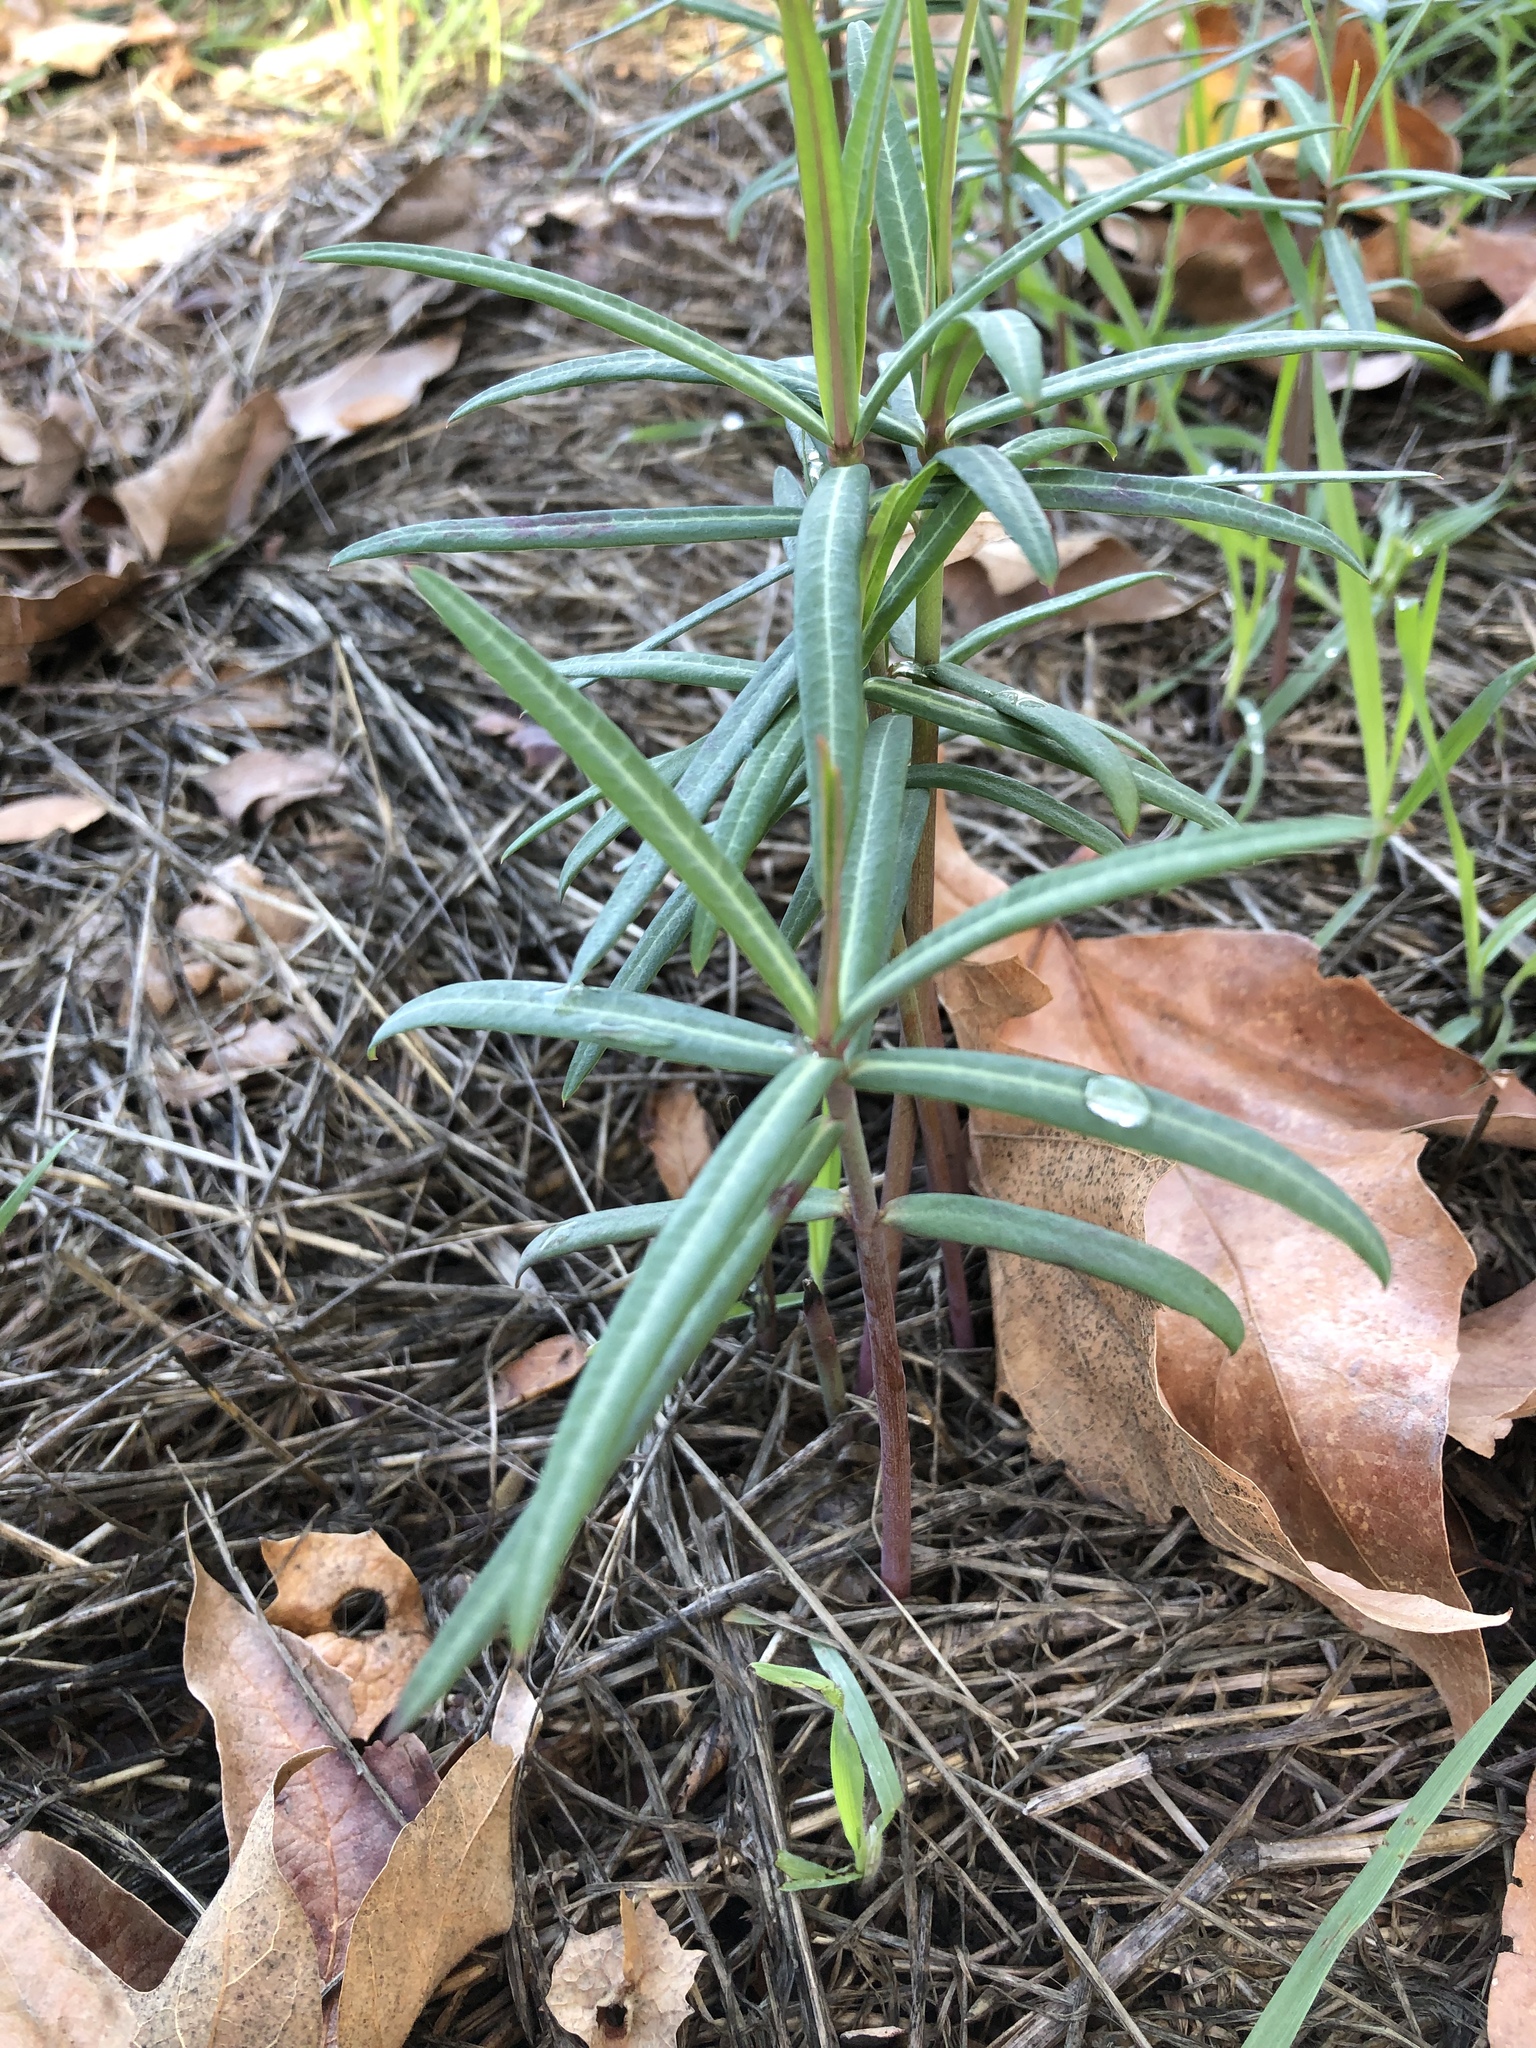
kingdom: Plantae
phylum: Tracheophyta
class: Magnoliopsida
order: Malpighiales
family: Euphorbiaceae
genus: Euphorbia
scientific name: Euphorbia lathyris
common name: Caper spurge
